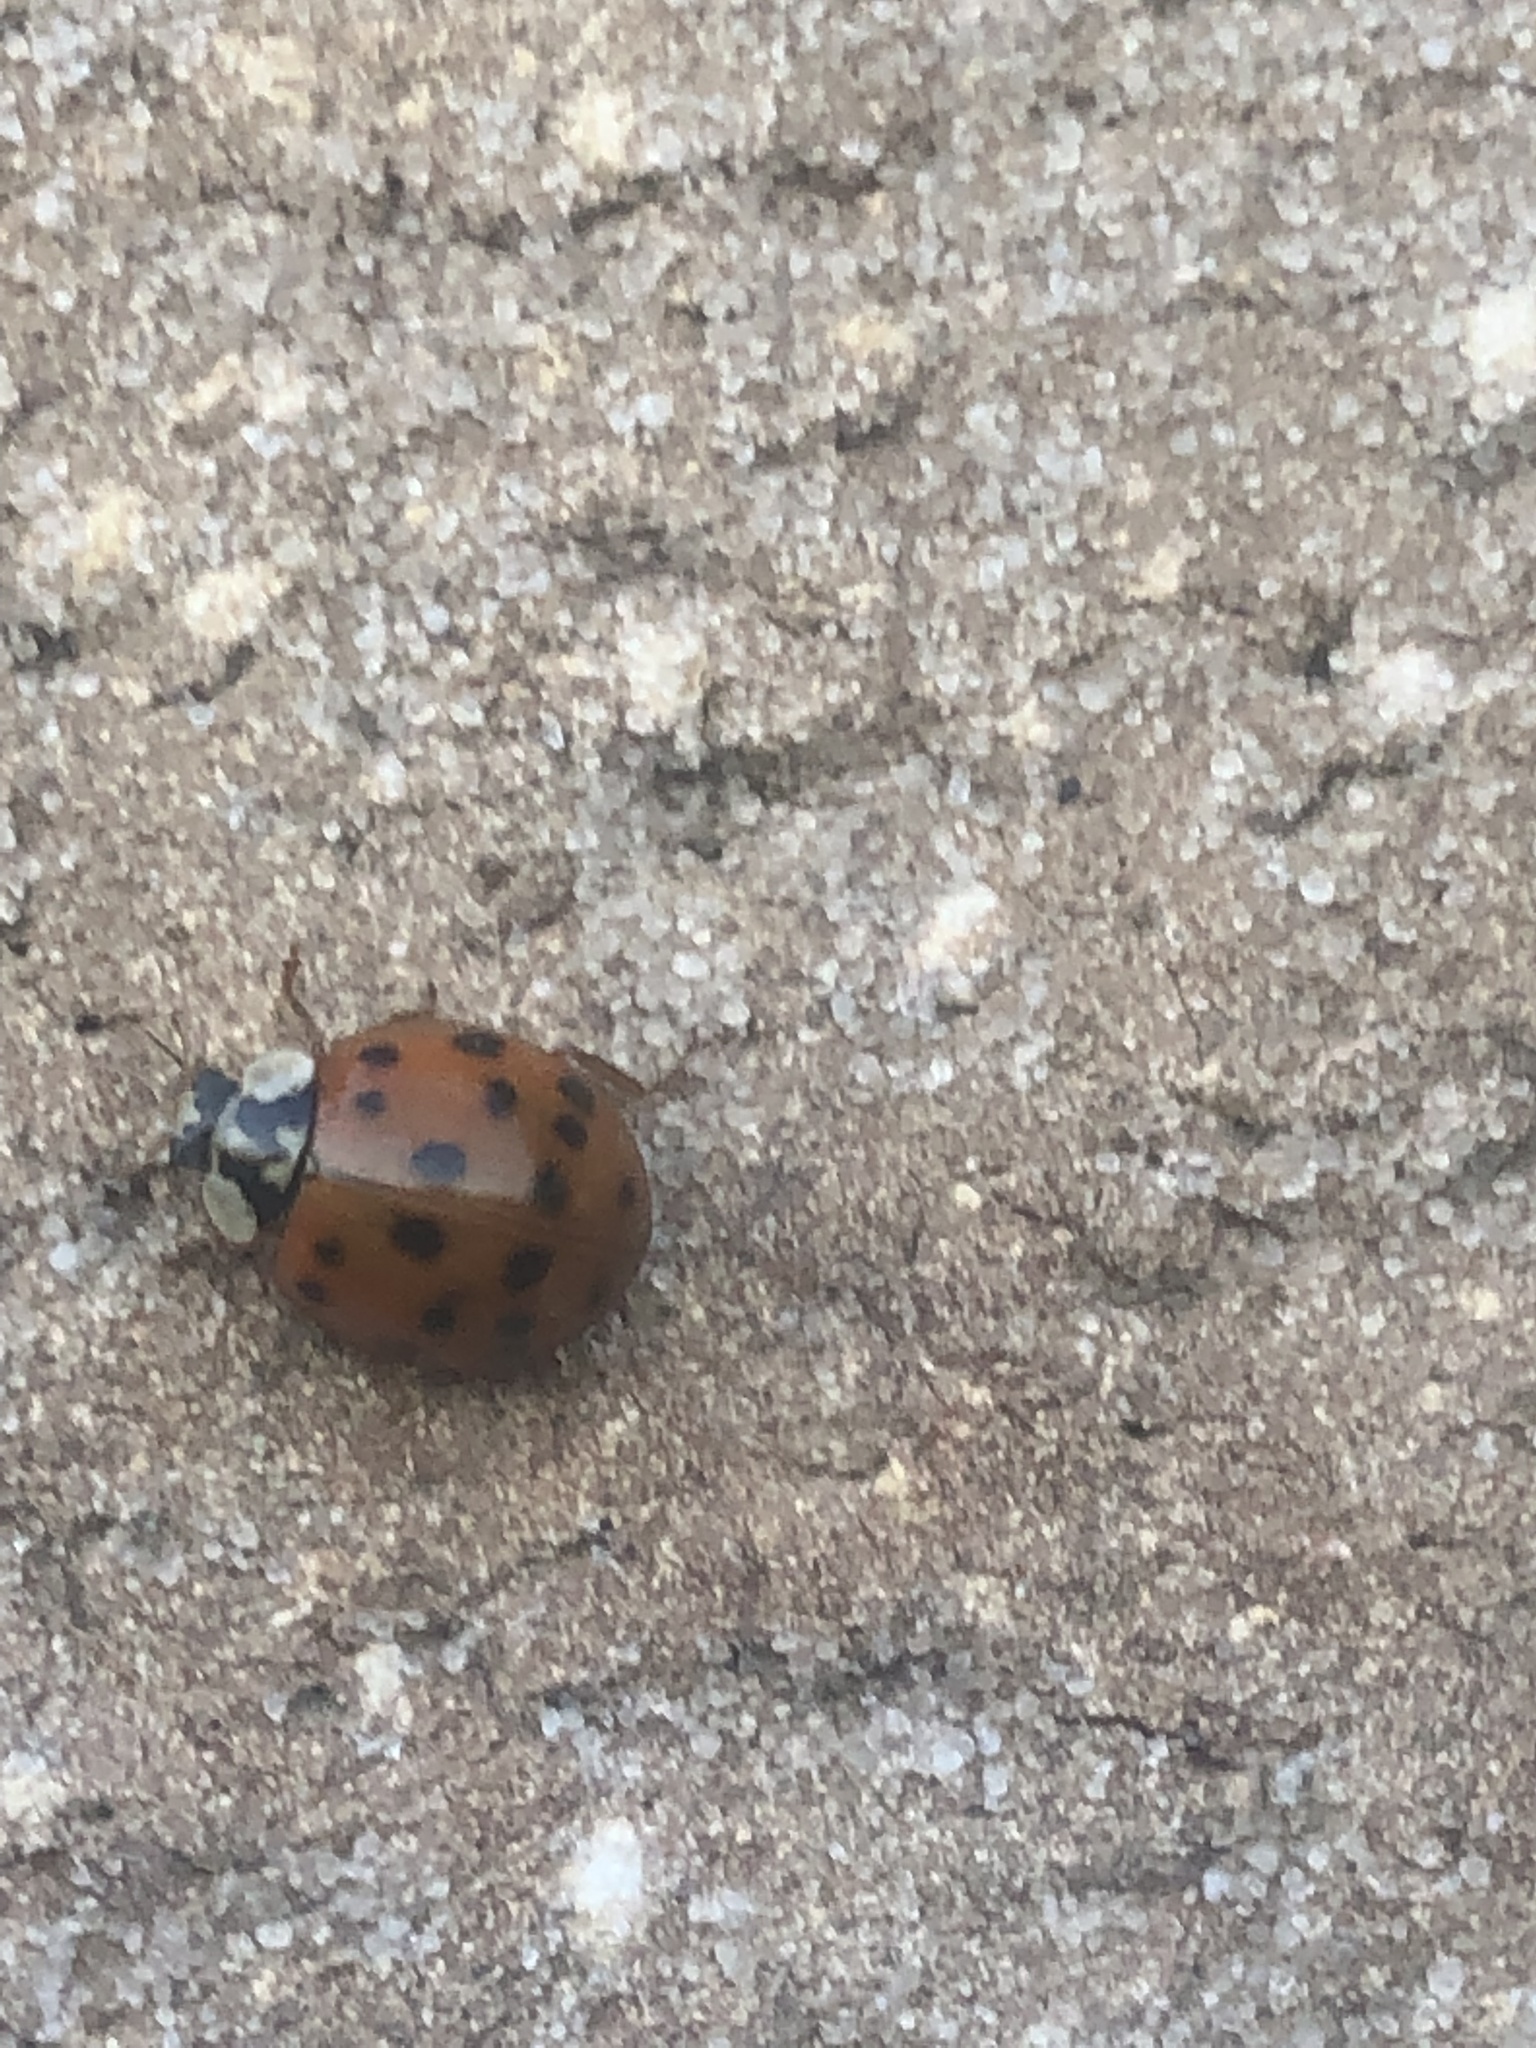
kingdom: Animalia
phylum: Arthropoda
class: Insecta
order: Coleoptera
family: Coccinellidae
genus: Harmonia
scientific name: Harmonia axyridis
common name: Harlequin ladybird
